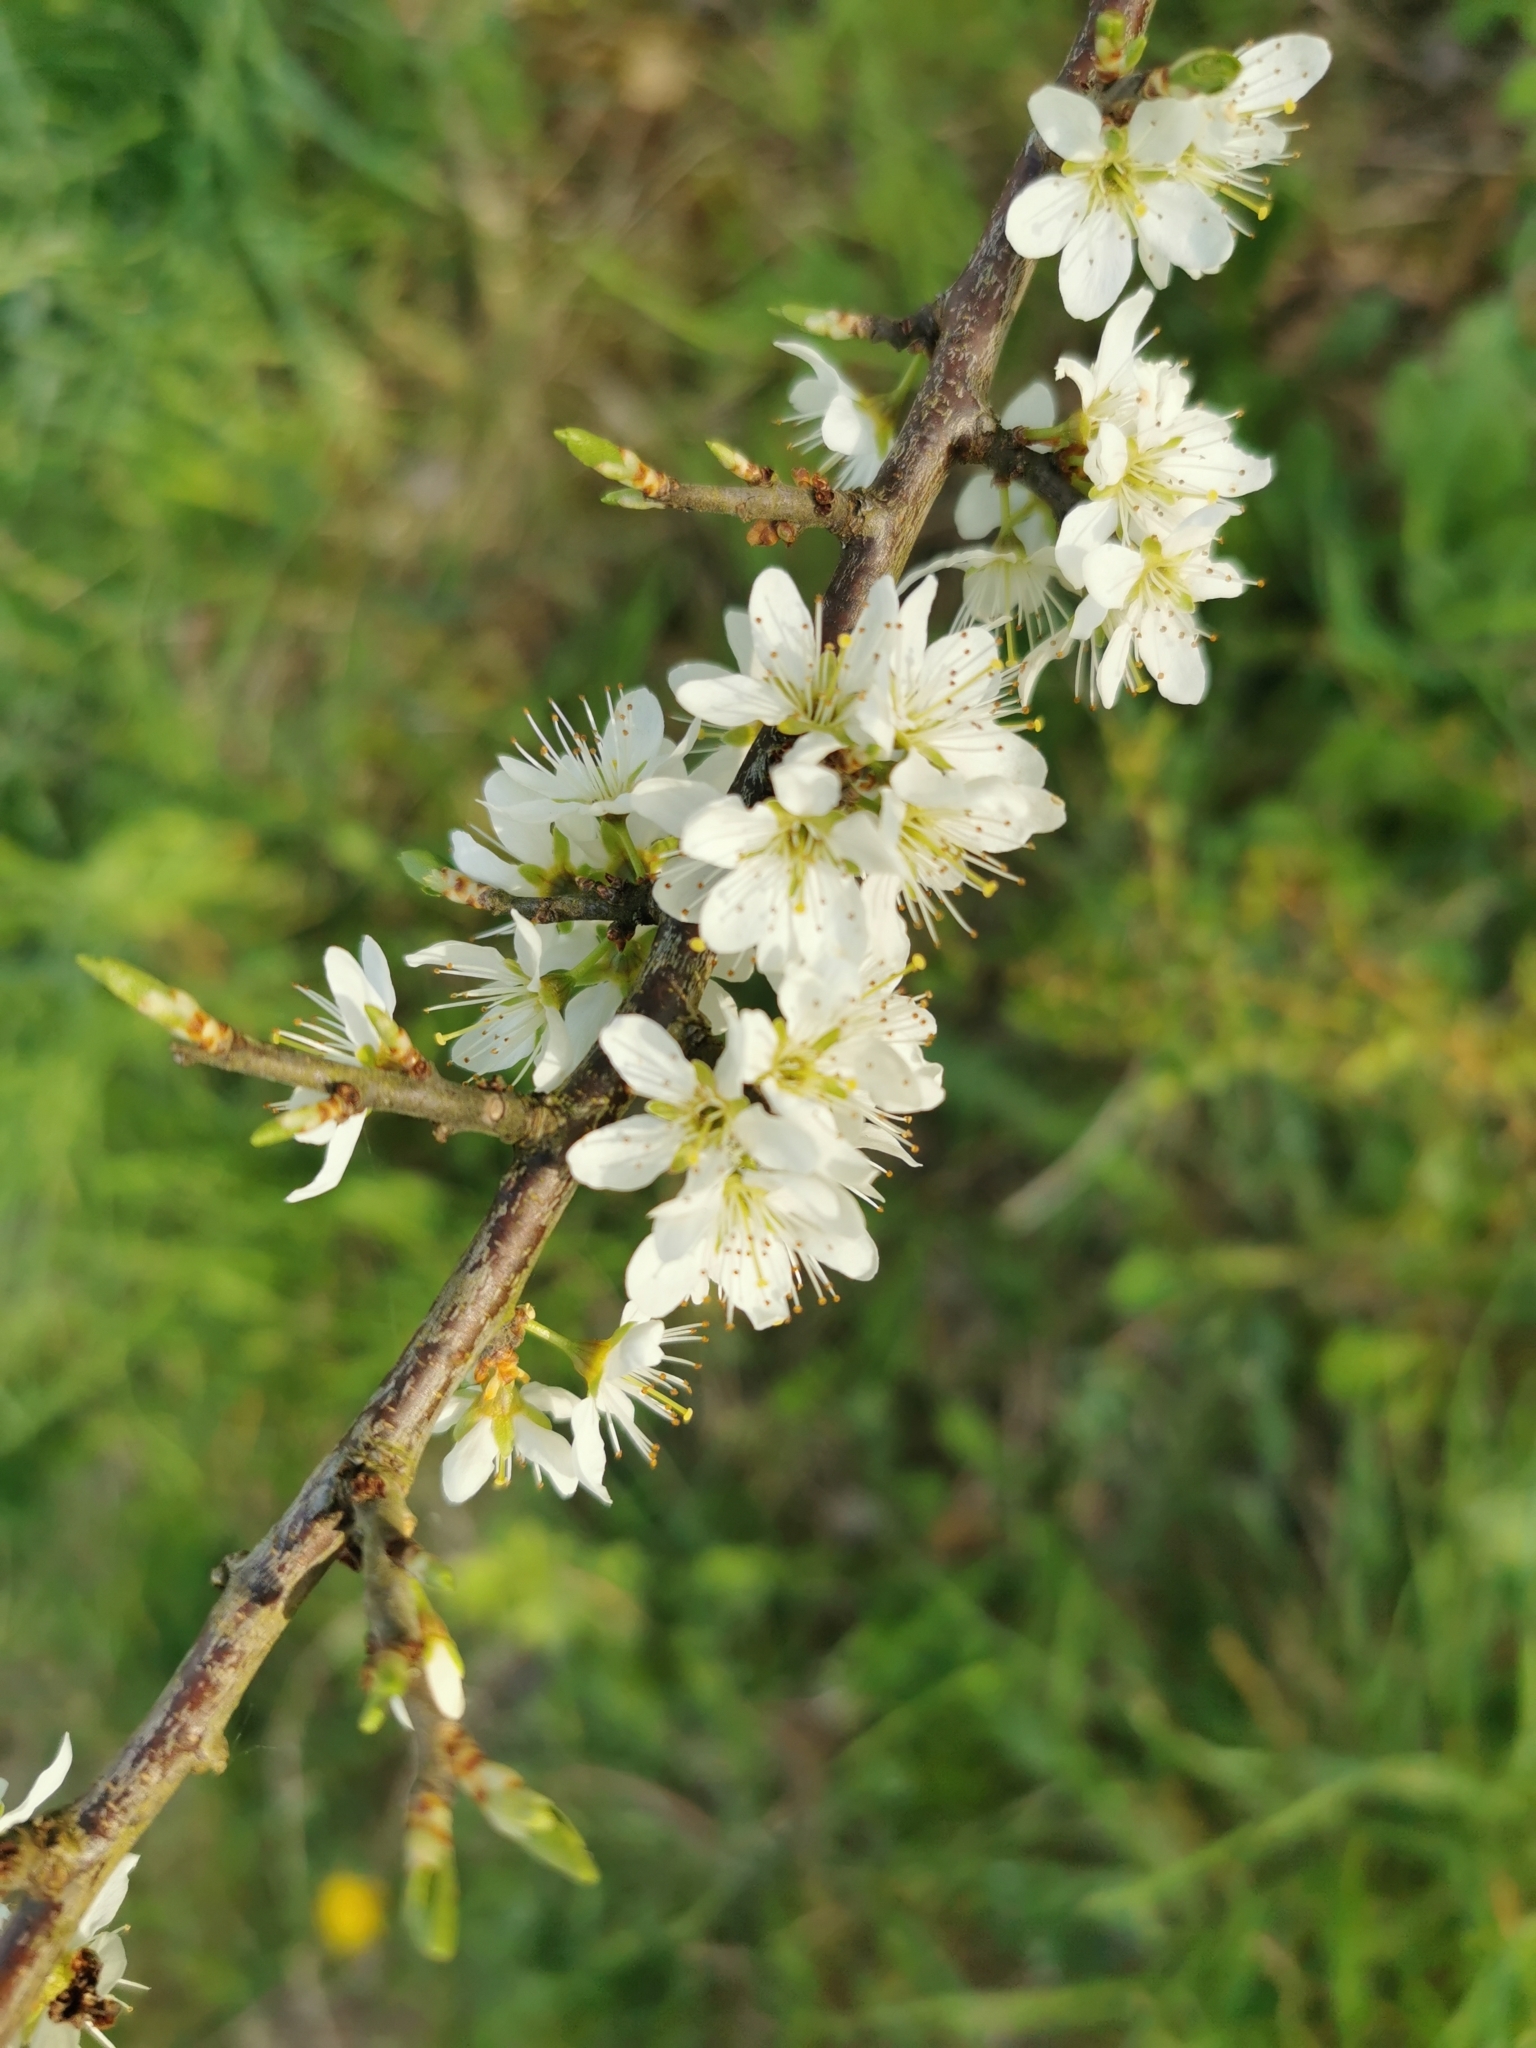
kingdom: Plantae
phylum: Tracheophyta
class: Magnoliopsida
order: Rosales
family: Rosaceae
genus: Prunus
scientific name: Prunus spinosa
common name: Blackthorn
